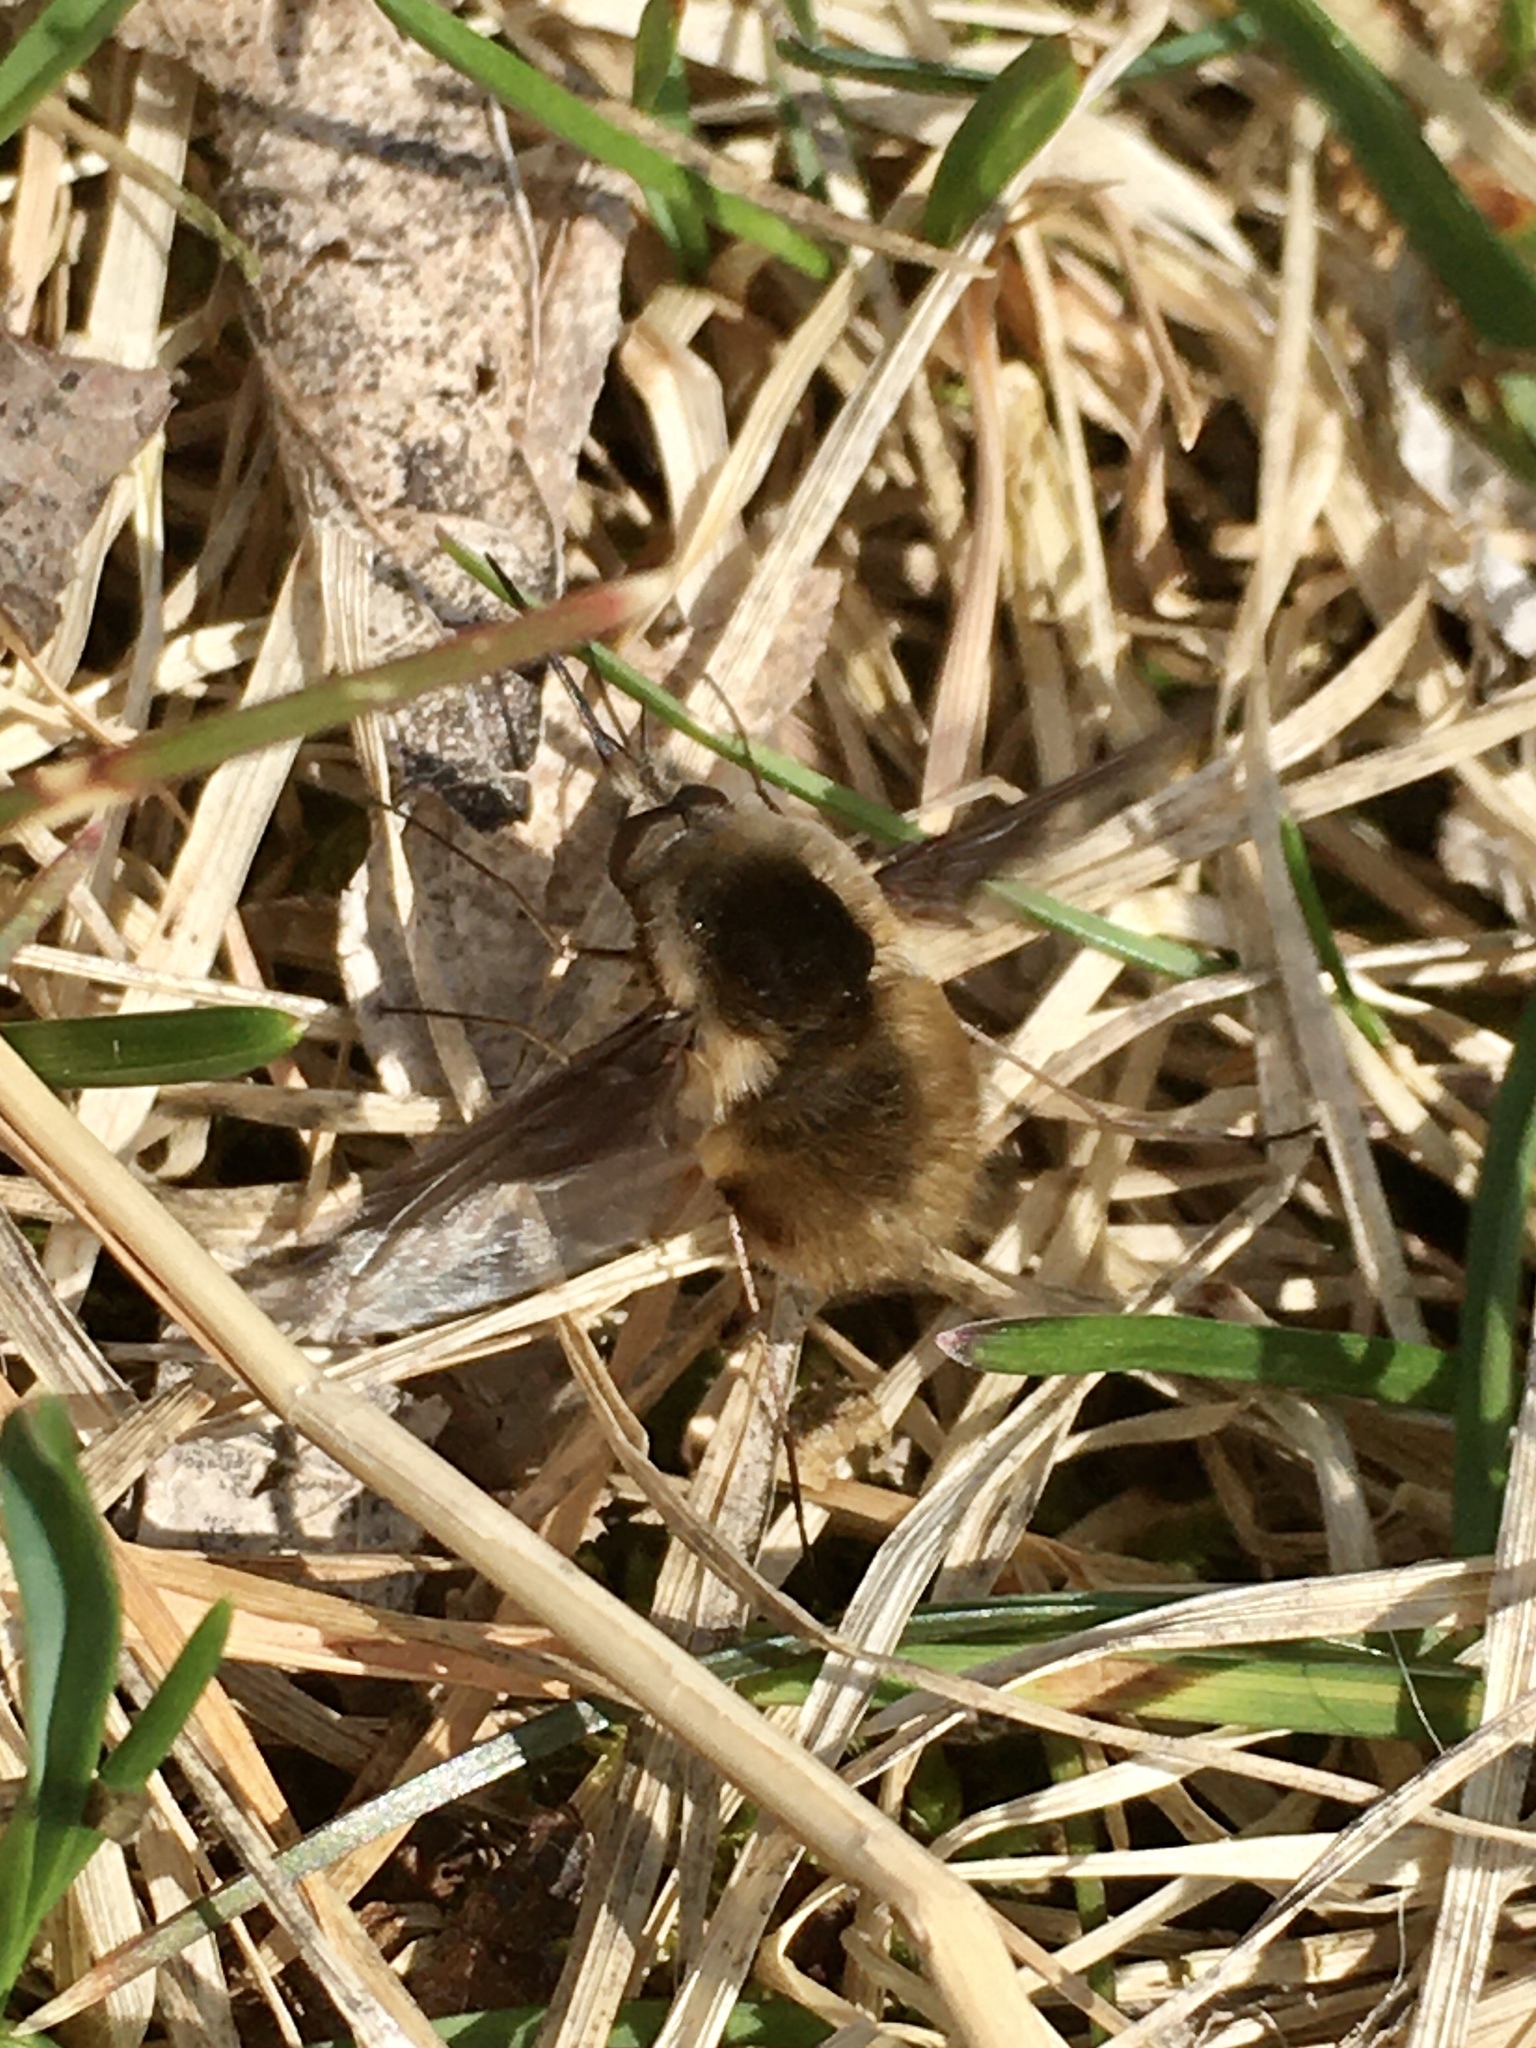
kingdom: Animalia
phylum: Arthropoda
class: Insecta
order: Diptera
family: Bombyliidae
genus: Bombylius
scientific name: Bombylius major
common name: Bee fly
